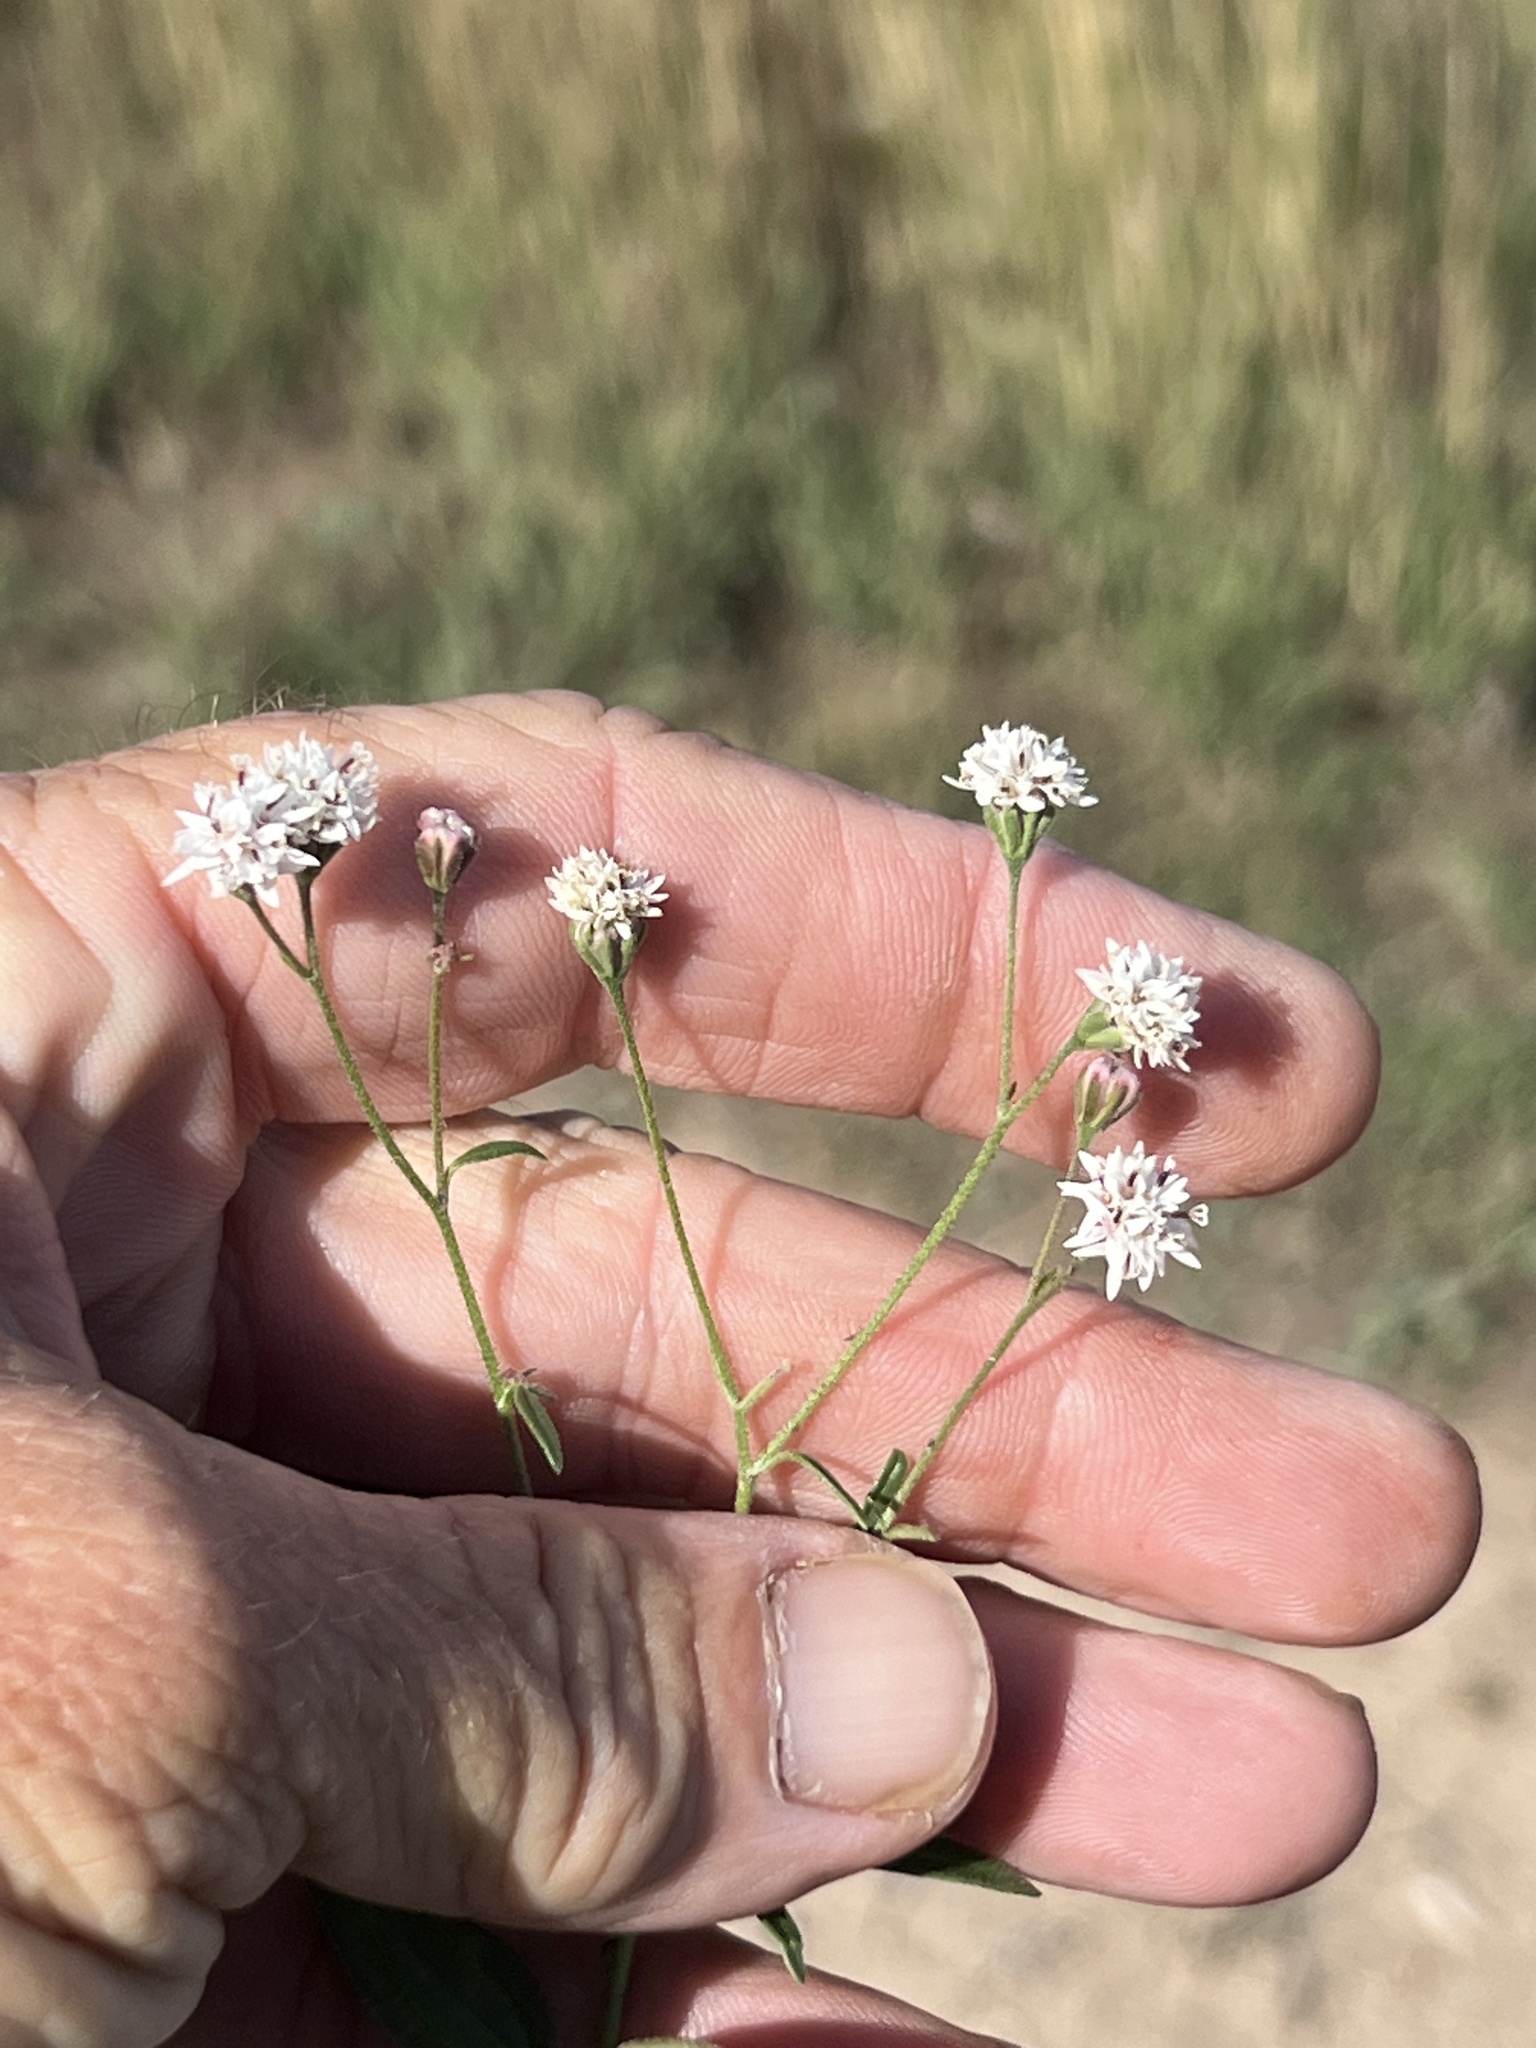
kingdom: Plantae
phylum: Tracheophyta
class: Magnoliopsida
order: Asterales
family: Asteraceae
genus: Florestina
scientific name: Florestina tripteris
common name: Sticky florestina
